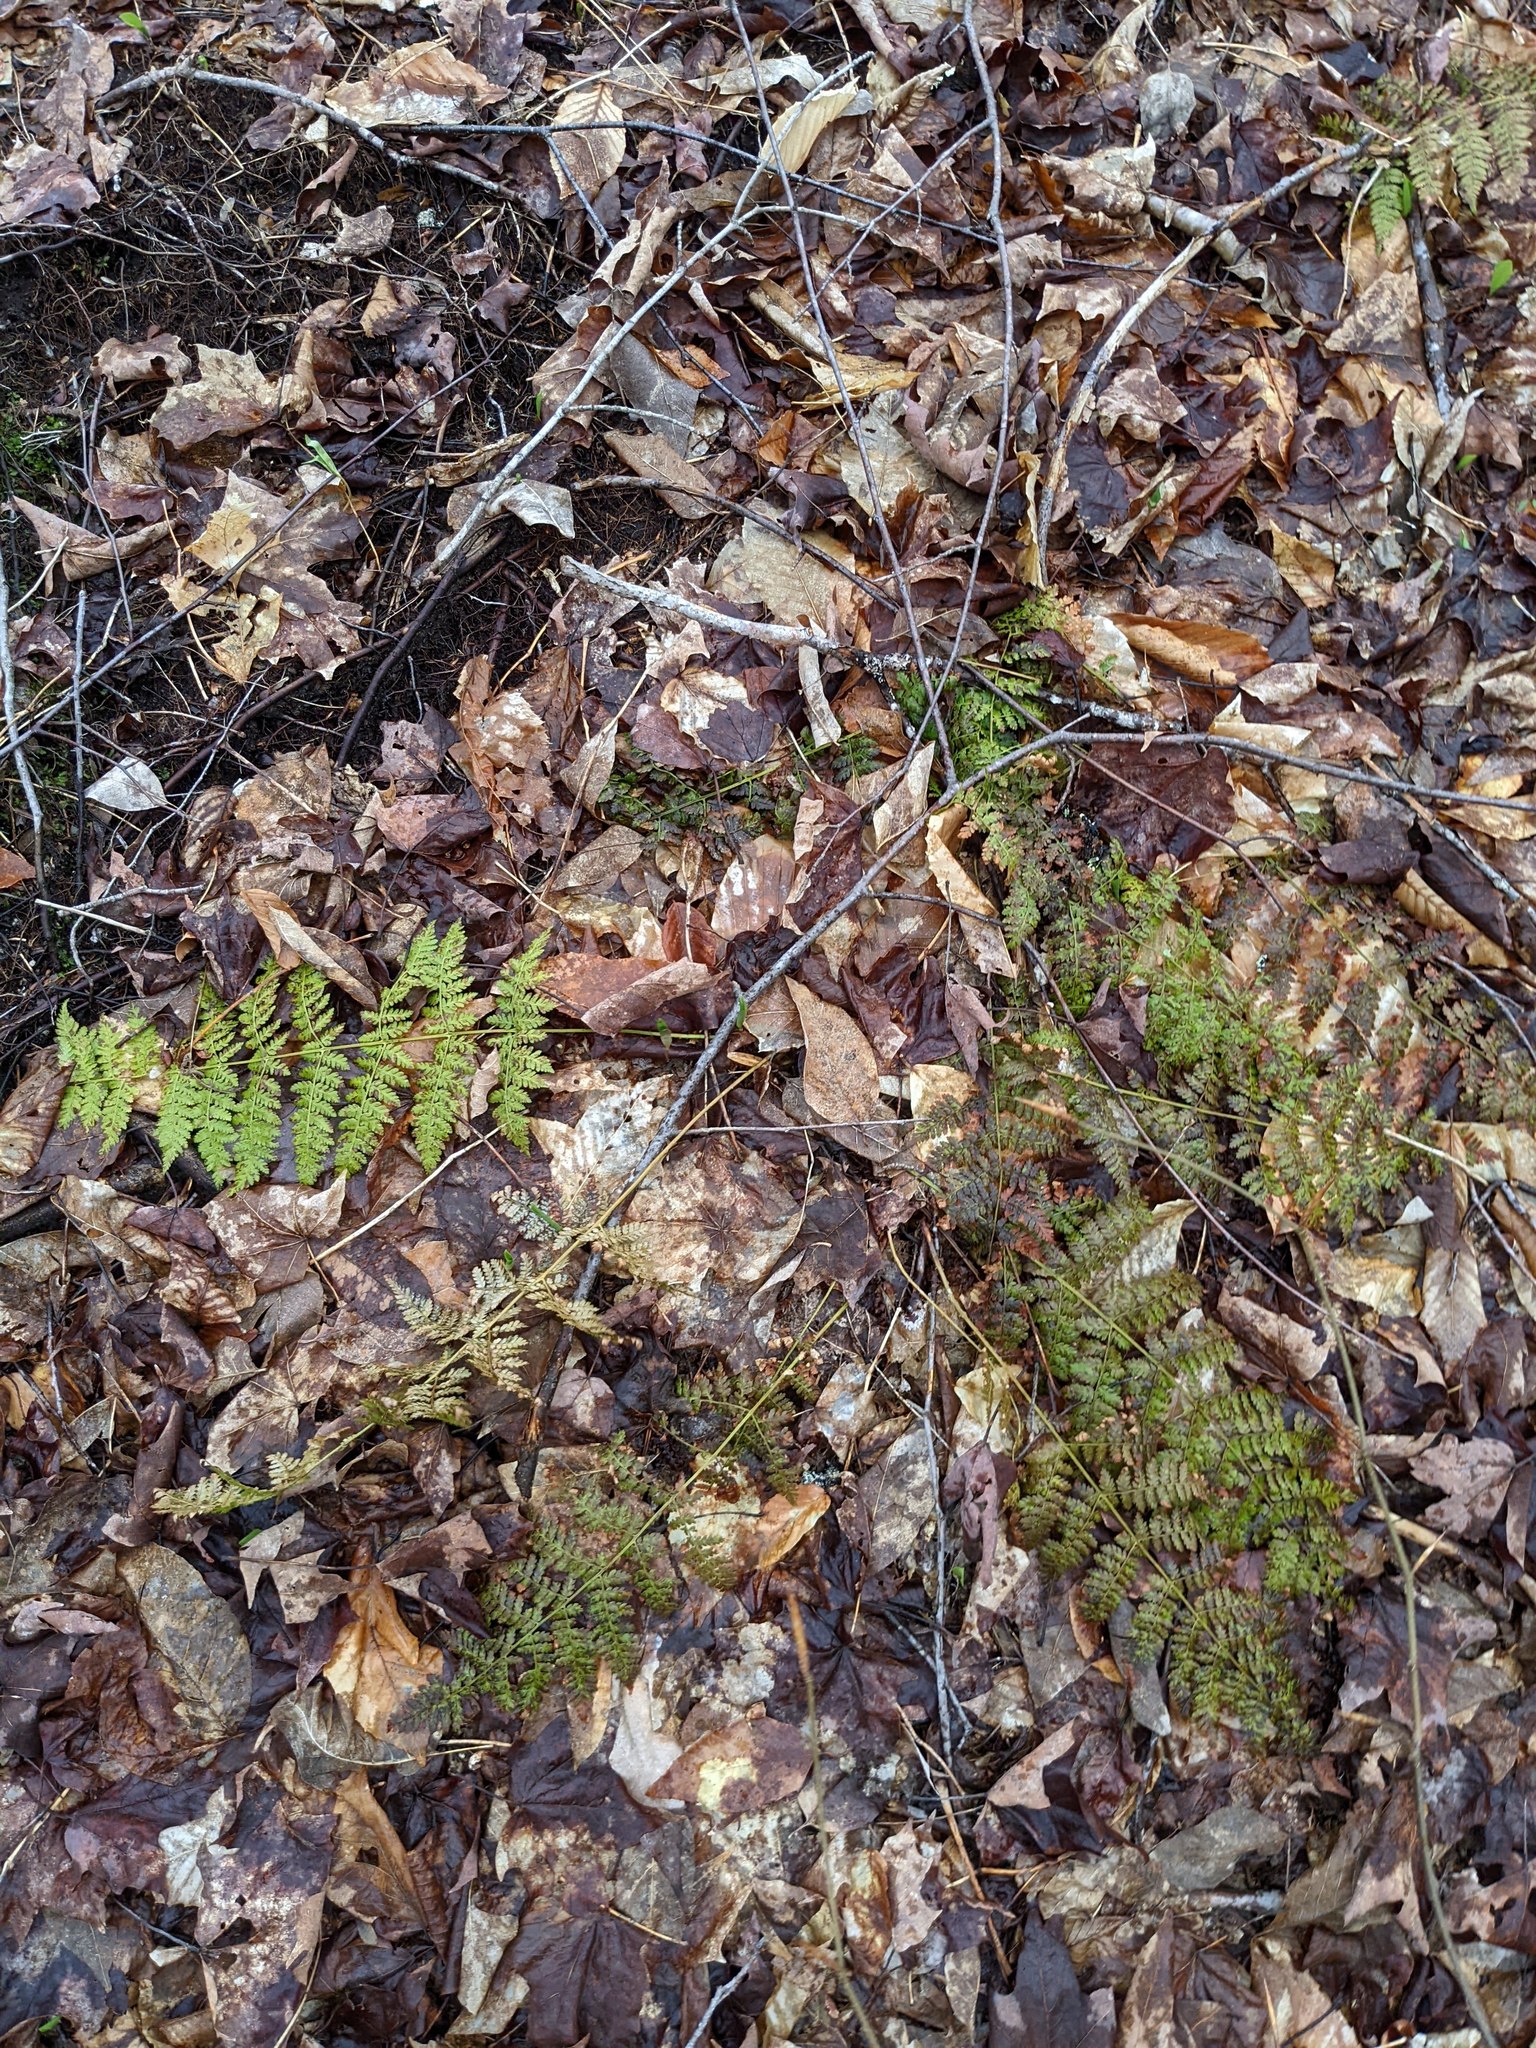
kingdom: Plantae
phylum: Tracheophyta
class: Polypodiopsida
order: Polypodiales
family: Dryopteridaceae
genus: Dryopteris
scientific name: Dryopteris intermedia
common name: Evergreen wood fern
